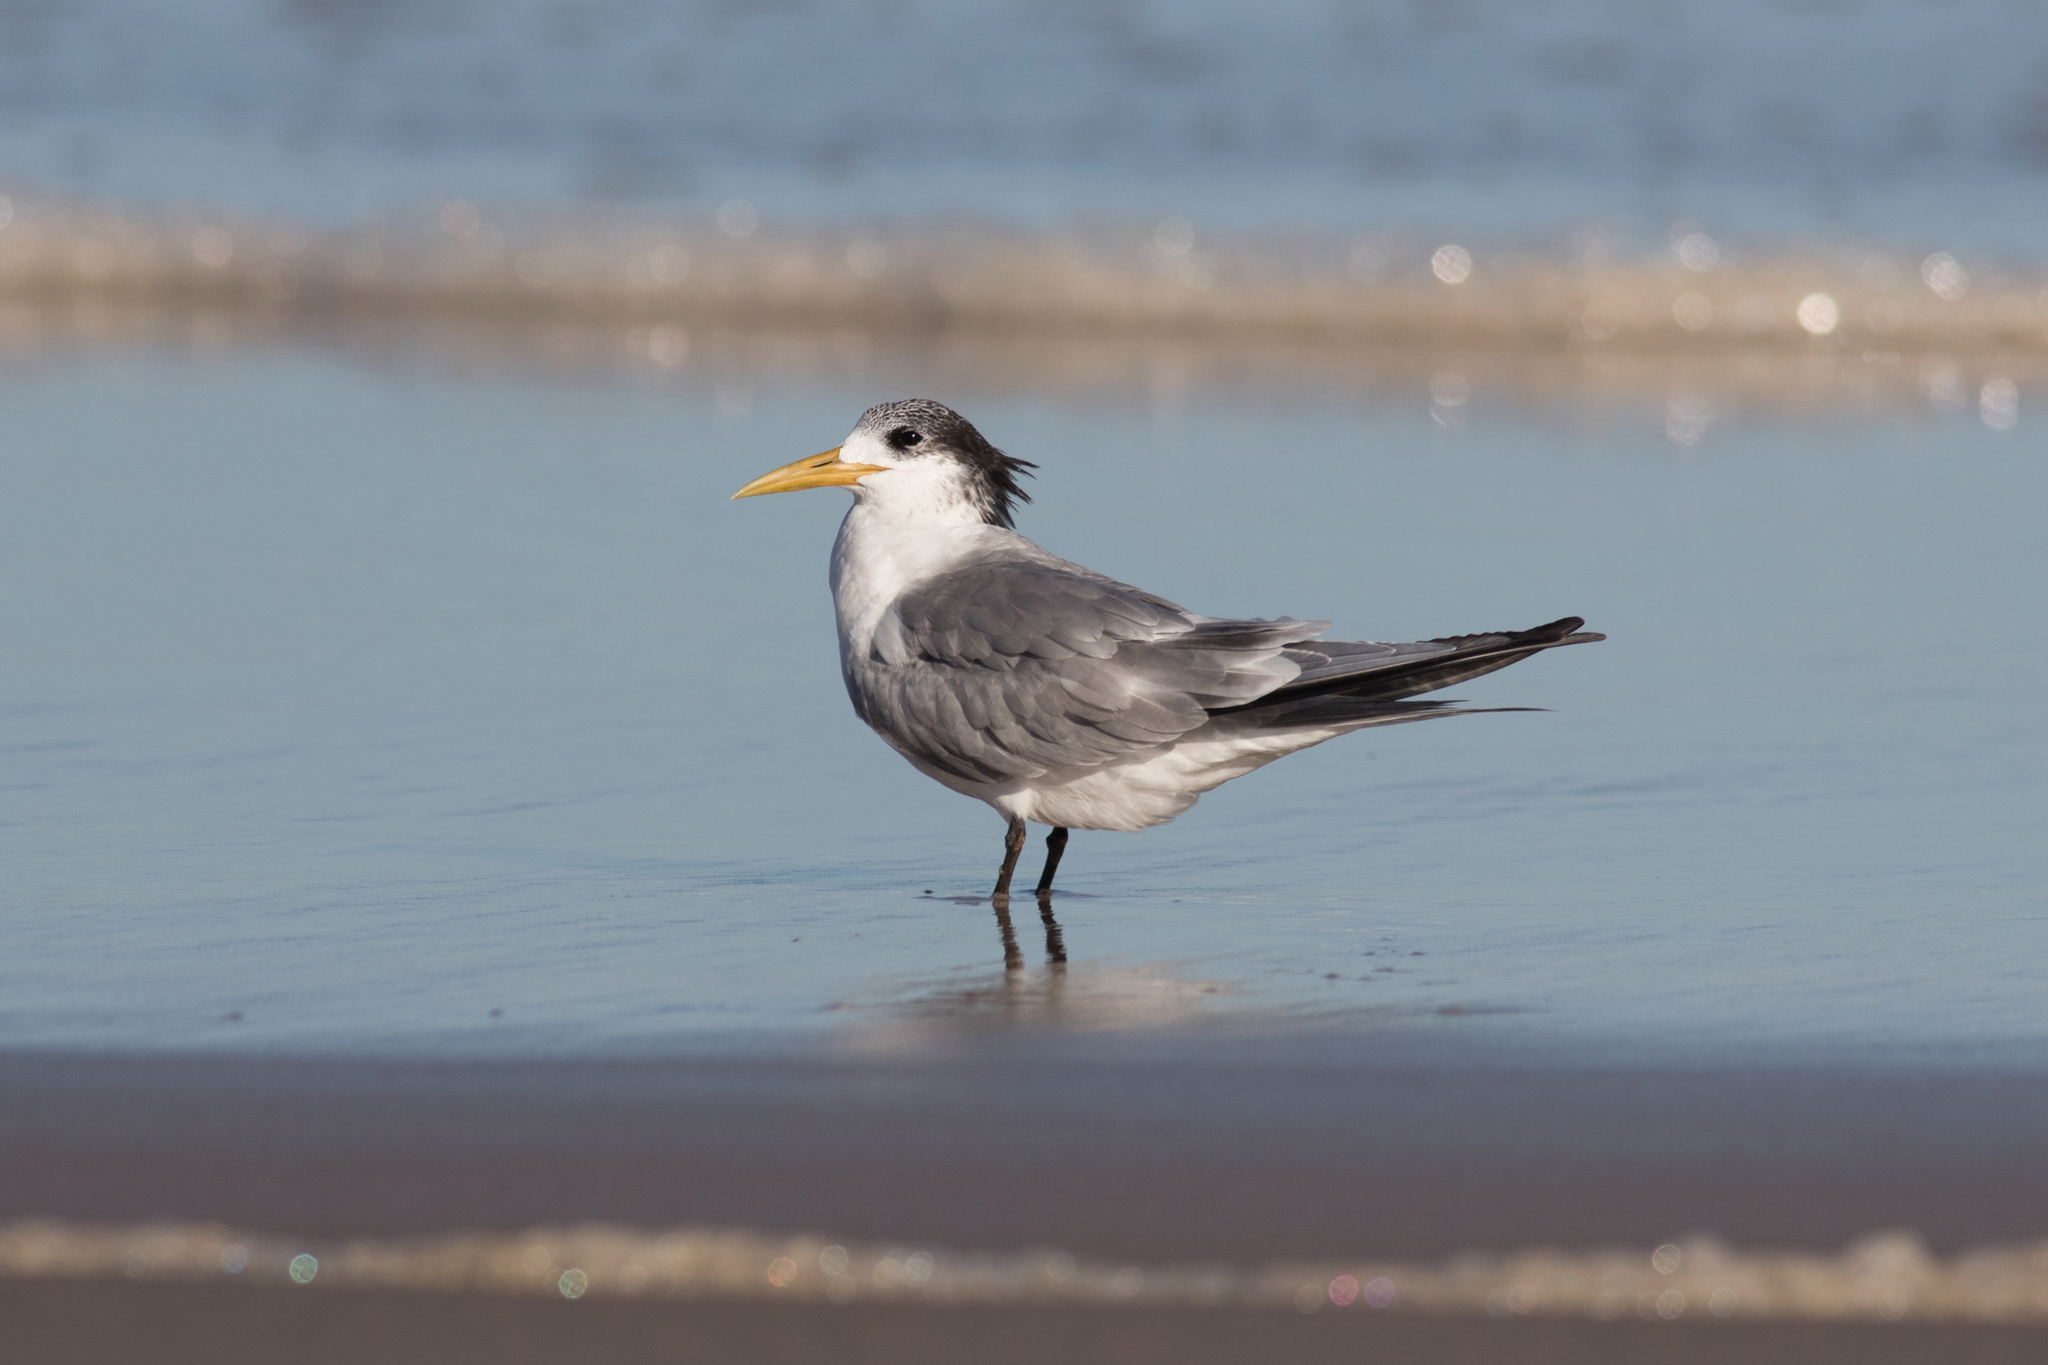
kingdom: Animalia
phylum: Chordata
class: Aves
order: Charadriiformes
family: Laridae
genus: Thalasseus
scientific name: Thalasseus bergii
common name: Greater crested tern
